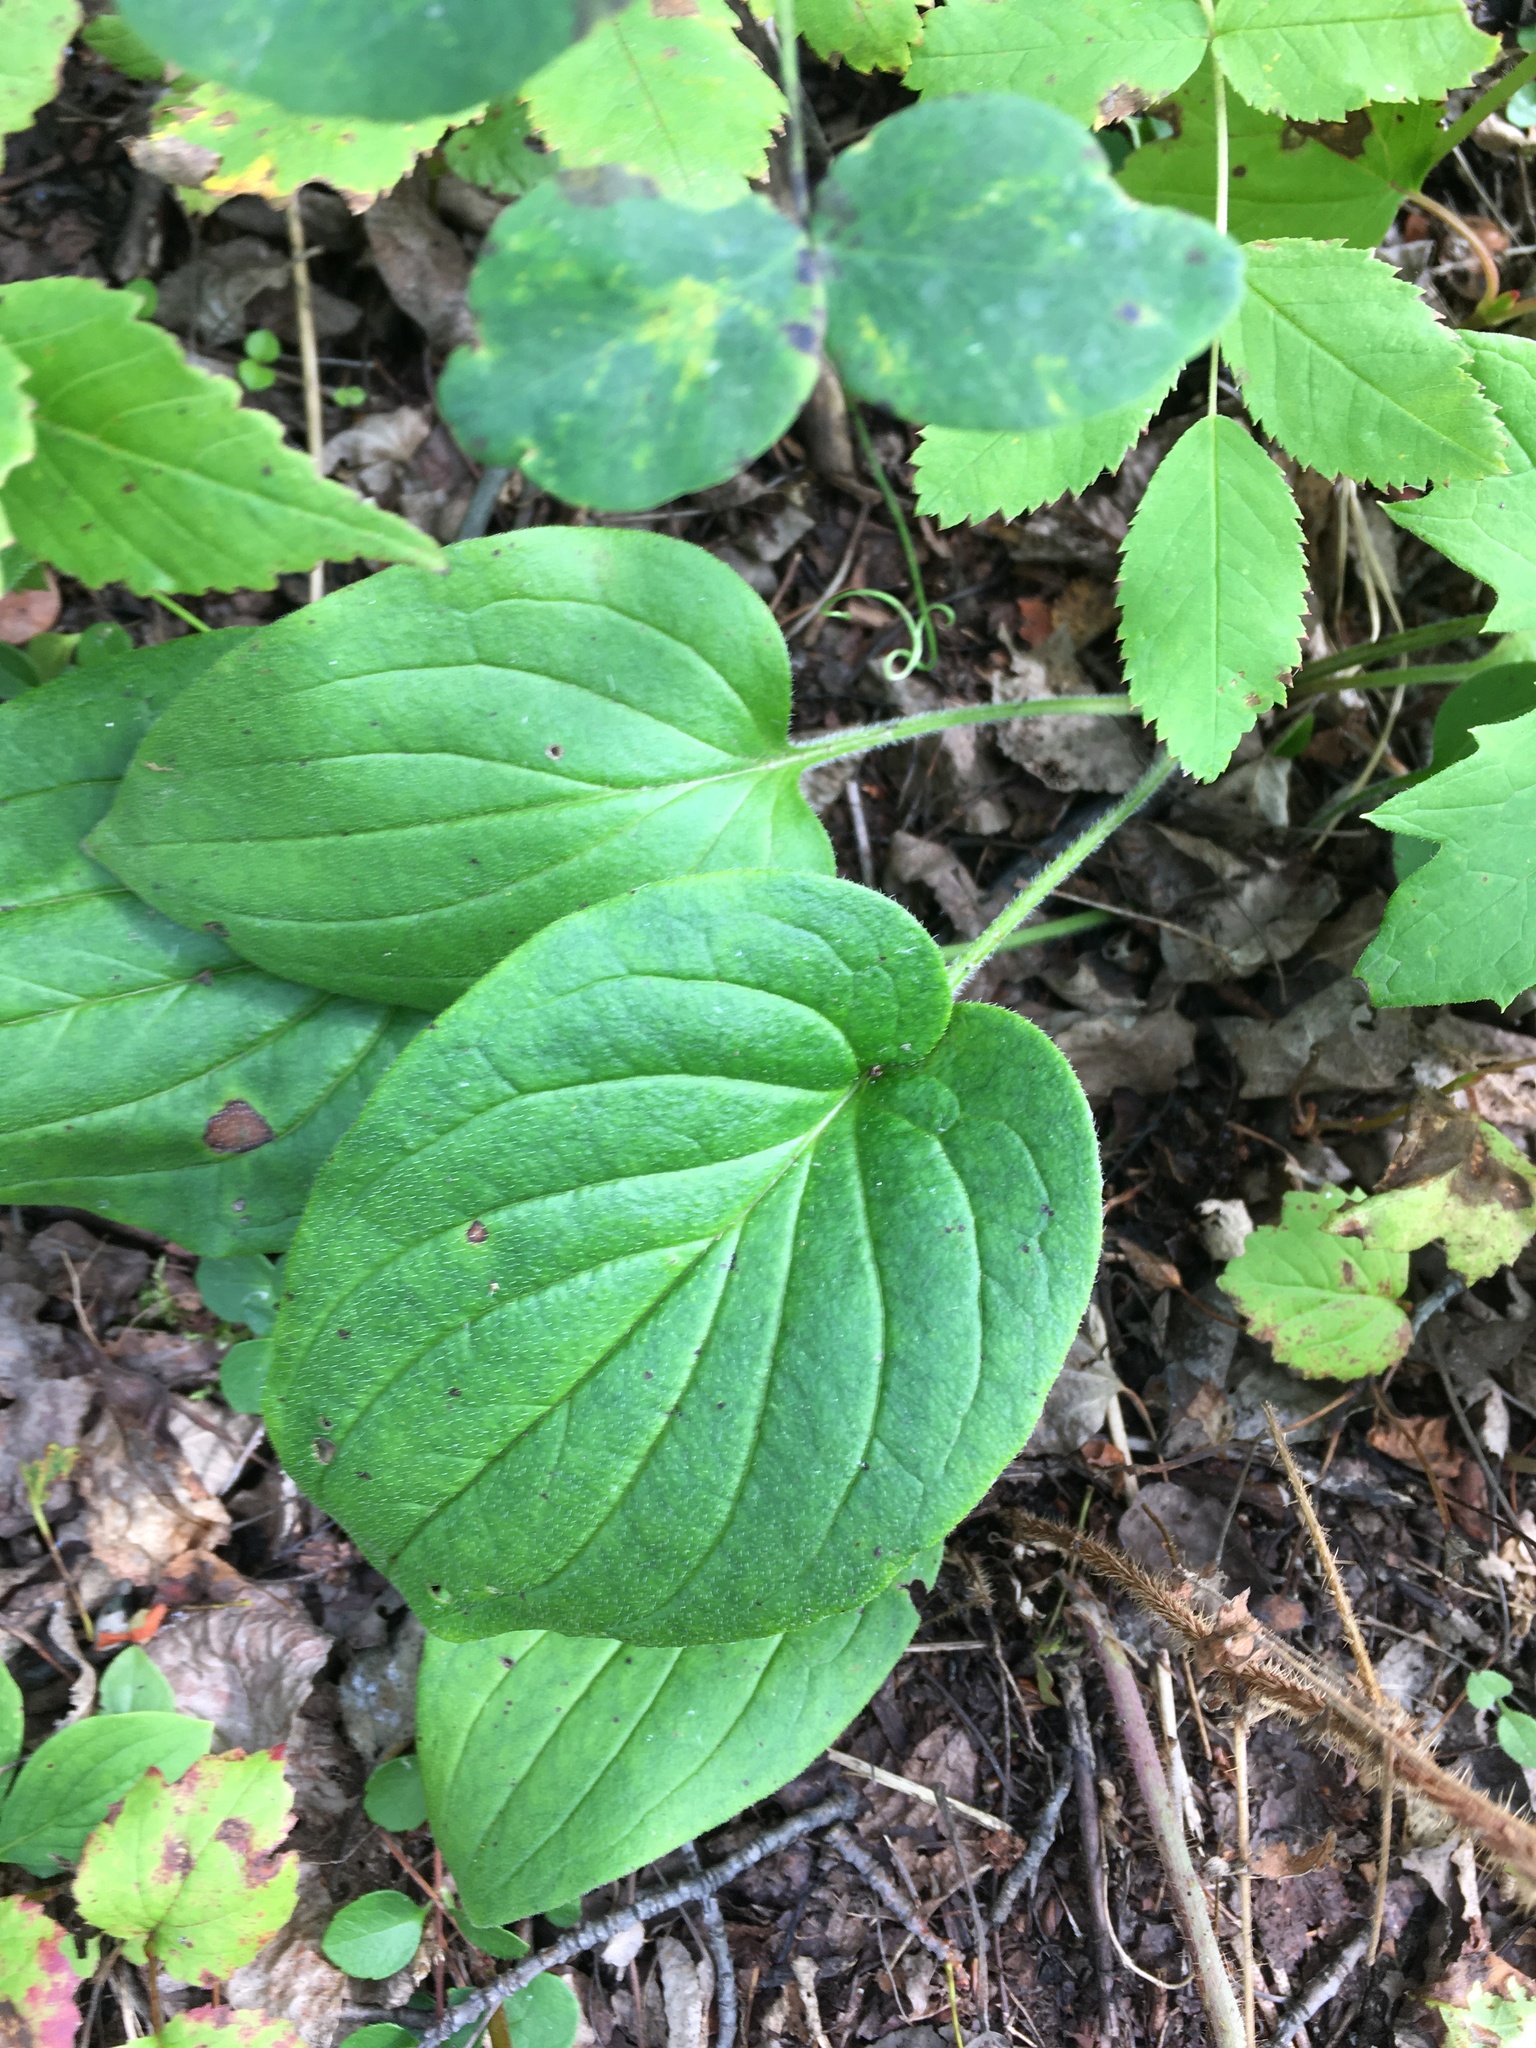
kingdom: Plantae
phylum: Tracheophyta
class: Magnoliopsida
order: Boraginales
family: Boraginaceae
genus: Mertensia
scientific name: Mertensia paniculata
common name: Panicled bluebells
